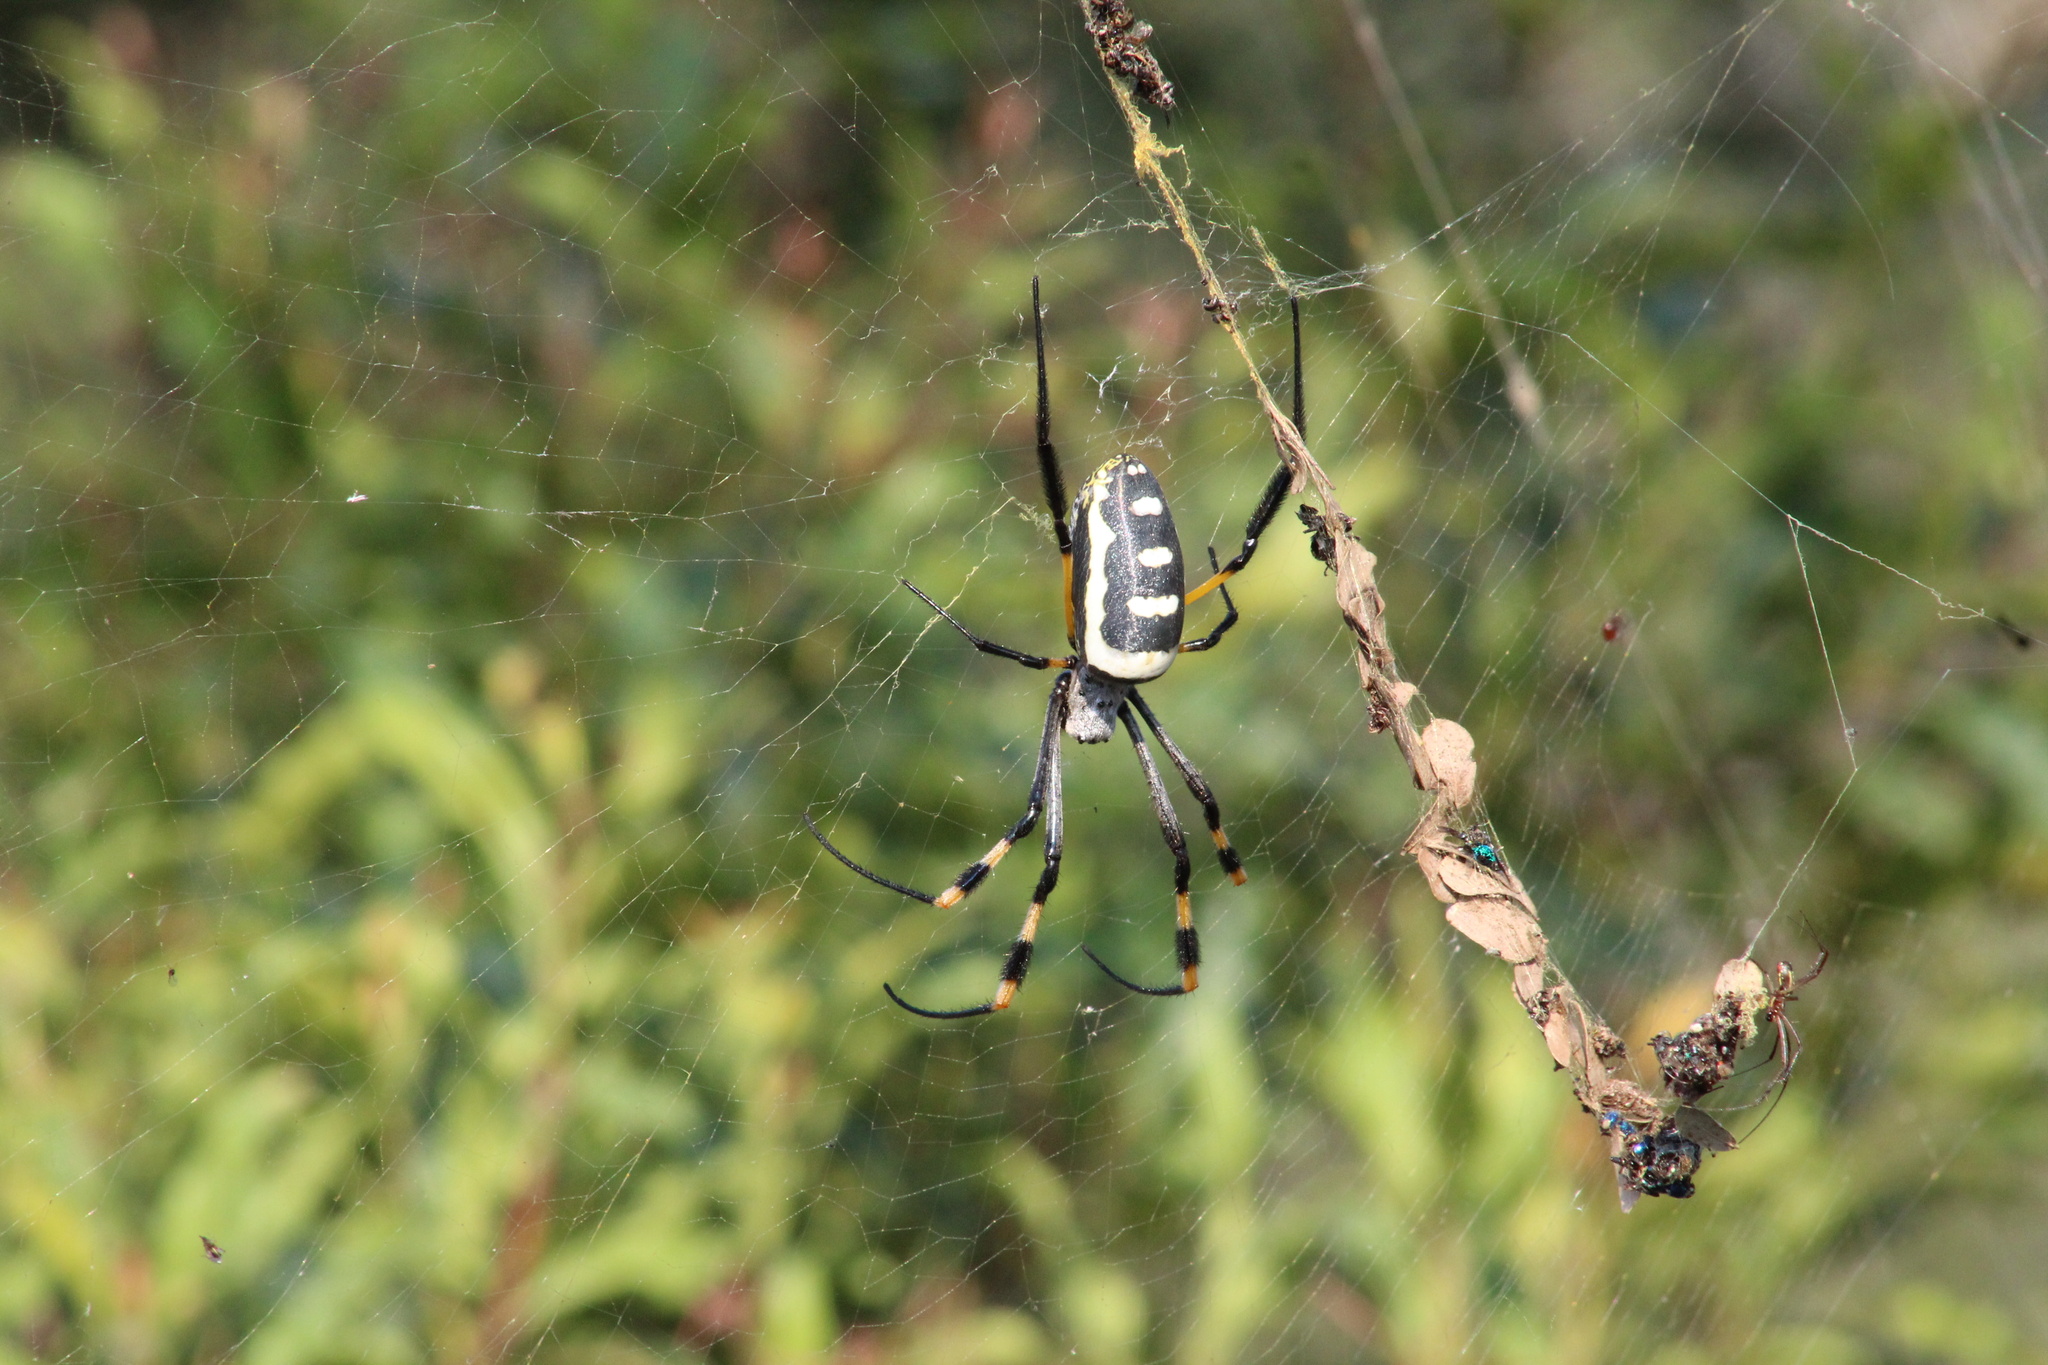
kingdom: Animalia
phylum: Arthropoda
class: Arachnida
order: Araneae
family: Araneidae
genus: Trichonephila
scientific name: Trichonephila senegalensis
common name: Banded golden orb weaver
